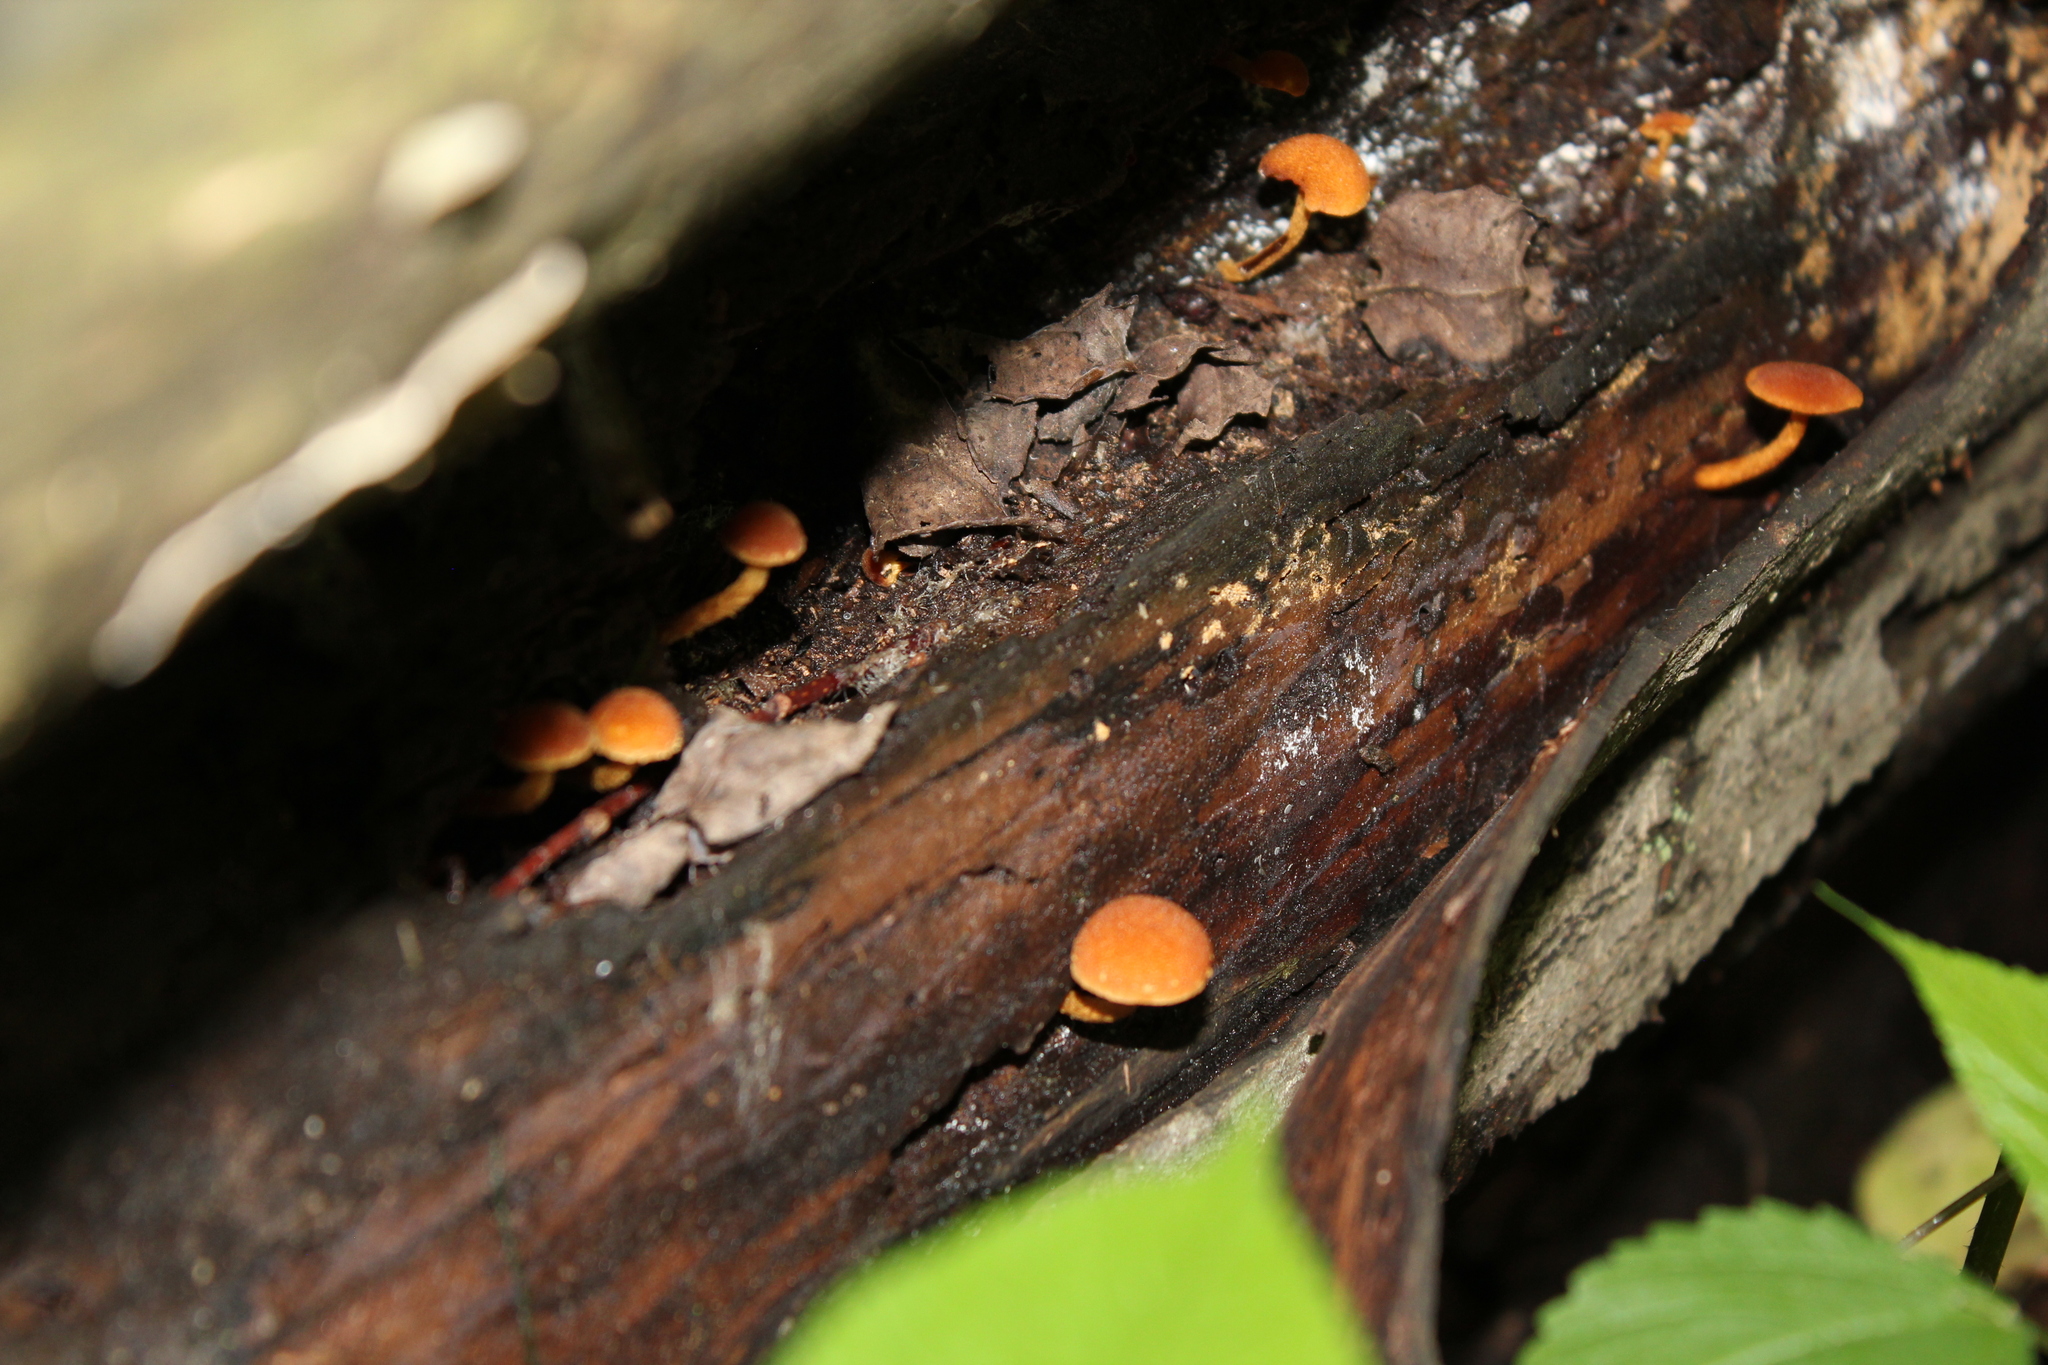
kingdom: Fungi
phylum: Basidiomycota
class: Agaricomycetes
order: Agaricales
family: Strophariaceae
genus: Pholiota
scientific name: Pholiota granulosa
